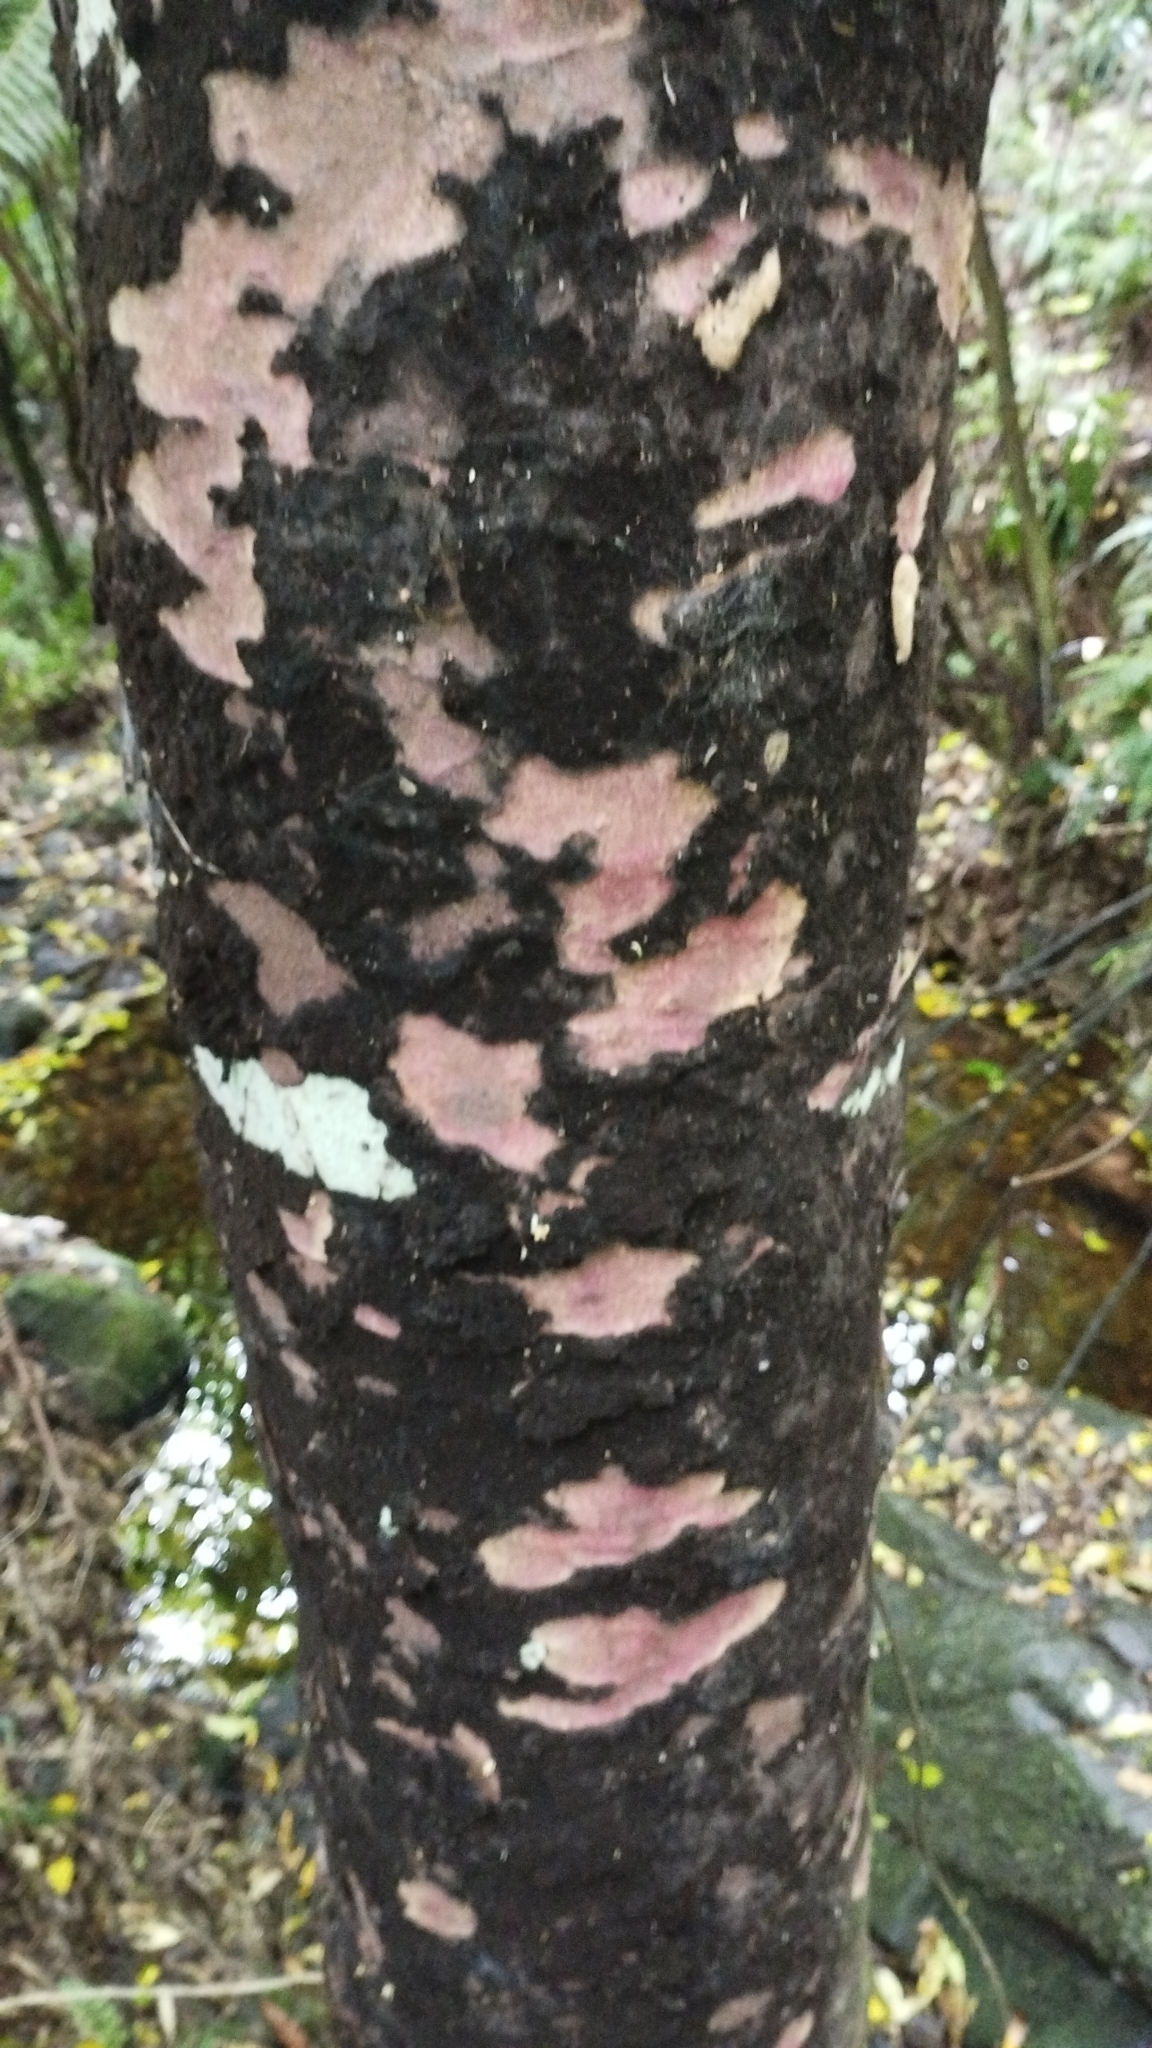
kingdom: Plantae
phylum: Tracheophyta
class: Pinopsida
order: Pinales
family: Podocarpaceae
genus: Prumnopitys
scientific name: Prumnopitys taxifolia
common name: Matai
